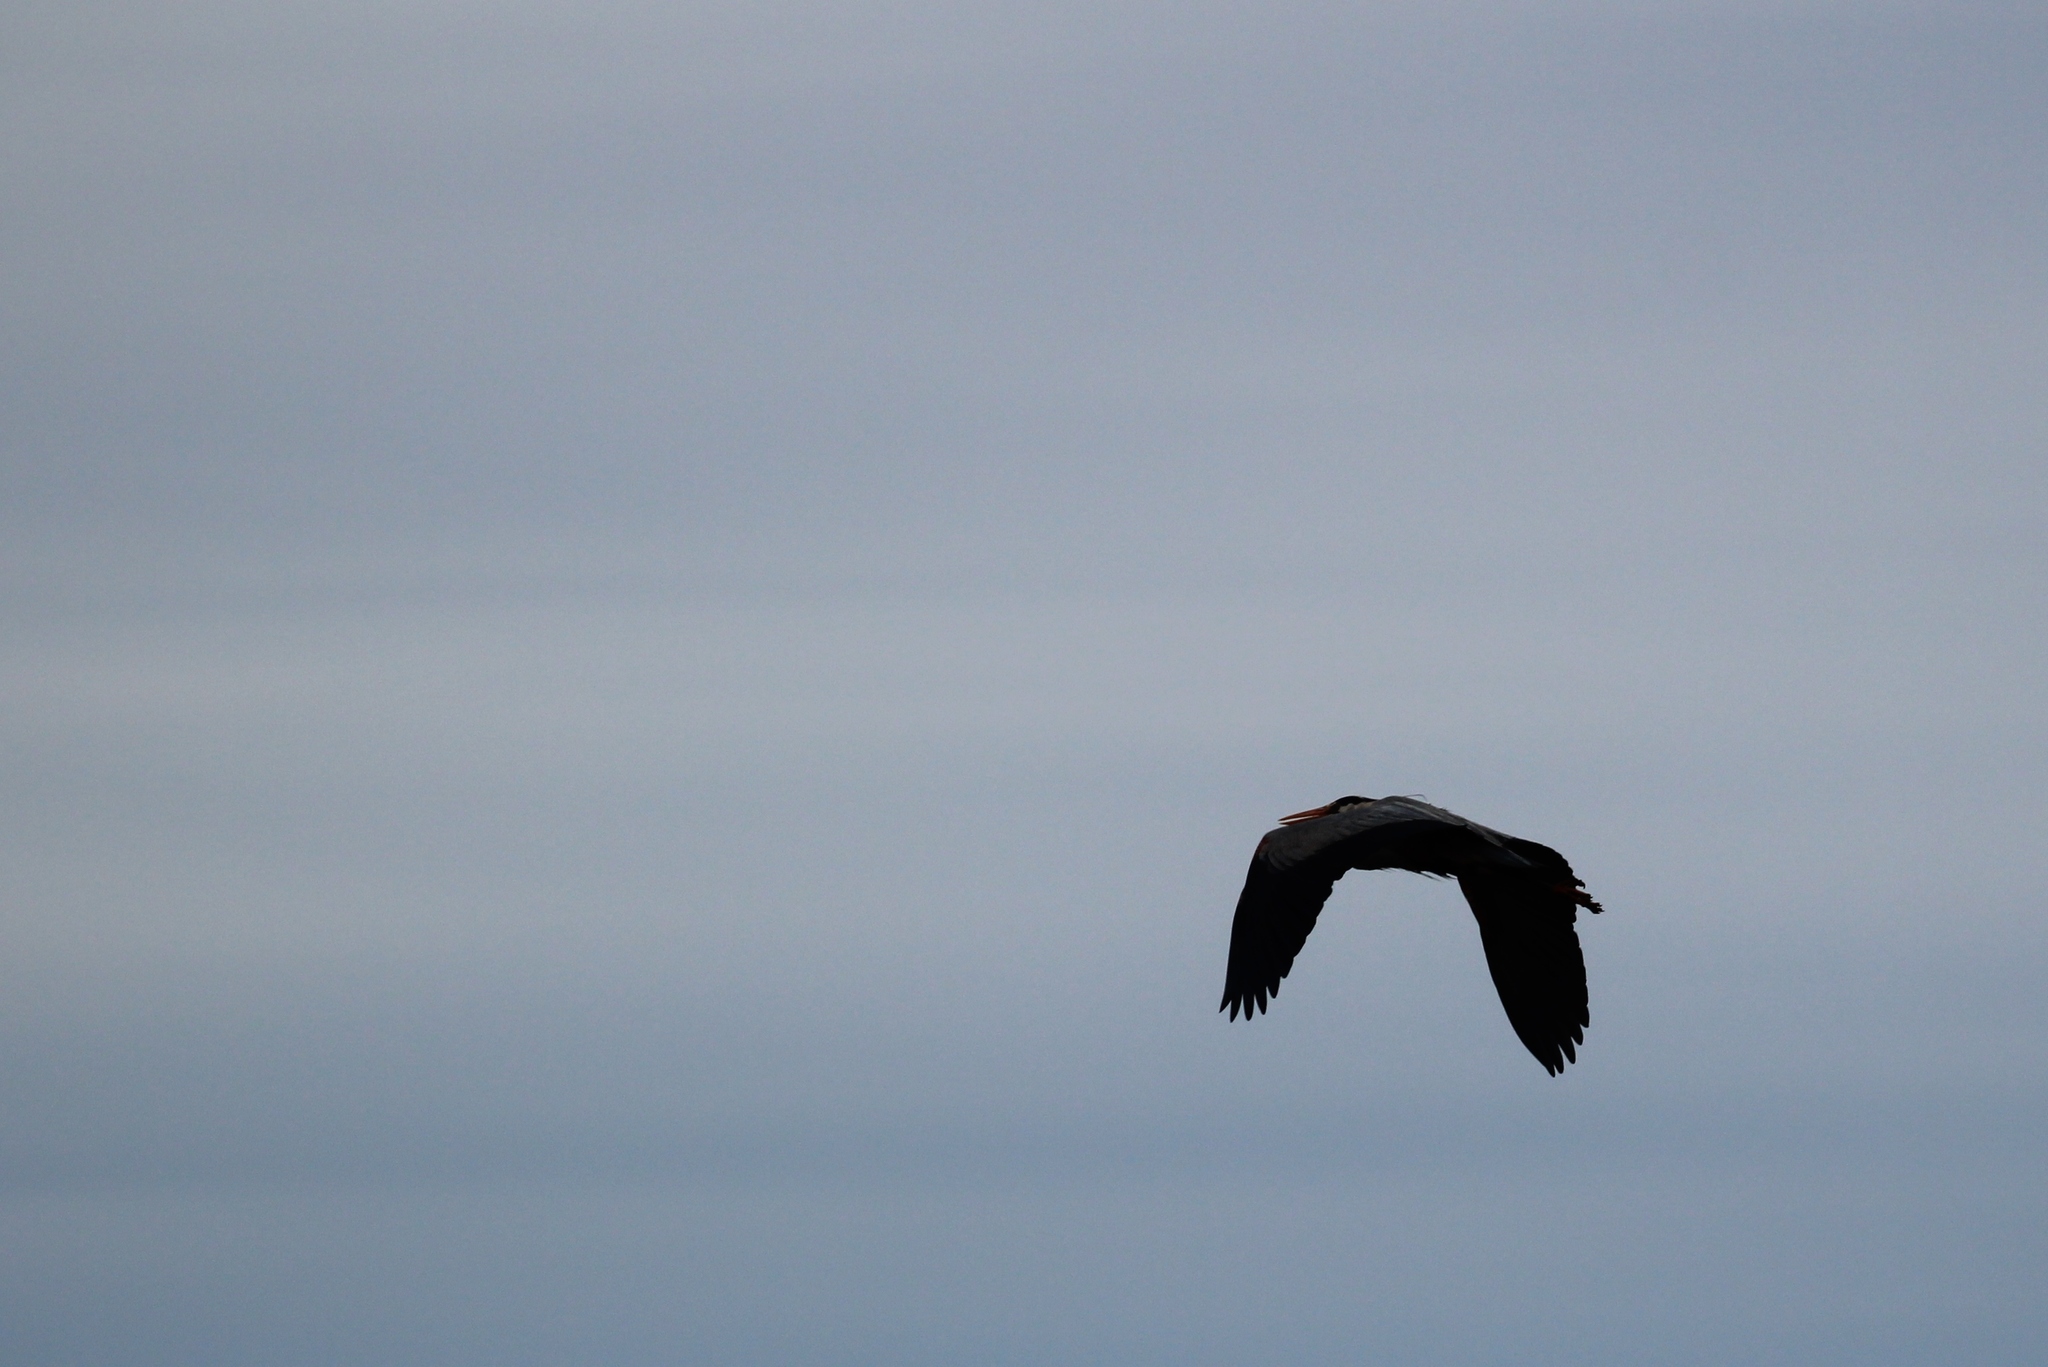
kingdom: Animalia
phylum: Chordata
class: Aves
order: Pelecaniformes
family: Ardeidae
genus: Ardea
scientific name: Ardea herodias
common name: Great blue heron
